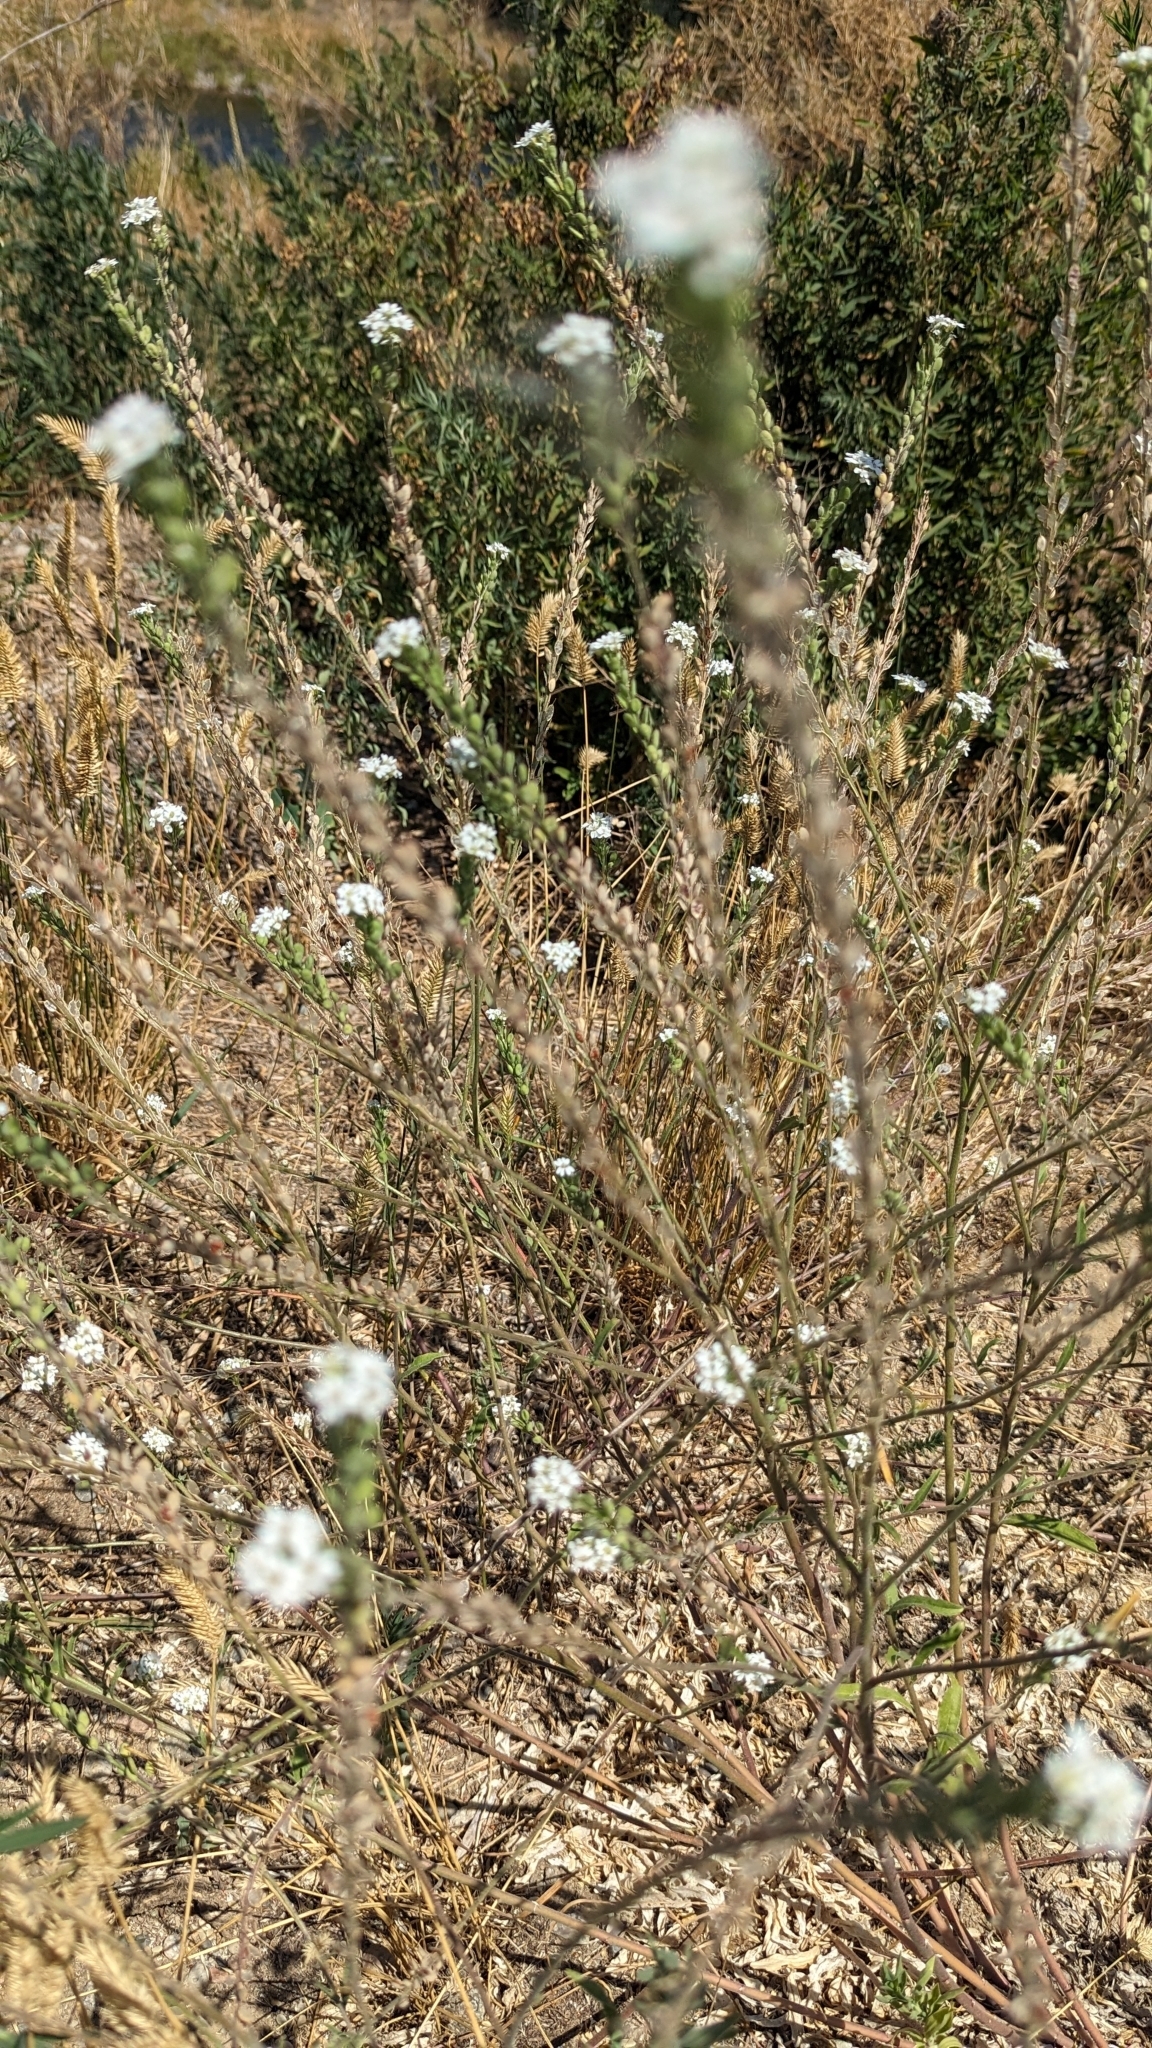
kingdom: Plantae
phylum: Tracheophyta
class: Magnoliopsida
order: Brassicales
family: Brassicaceae
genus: Berteroa
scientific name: Berteroa incana
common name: Hoary alison
